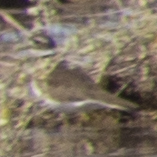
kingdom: Animalia
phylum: Chordata
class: Aves
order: Charadriiformes
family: Charadriidae
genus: Charadrius
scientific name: Charadrius vociferus
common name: Killdeer
